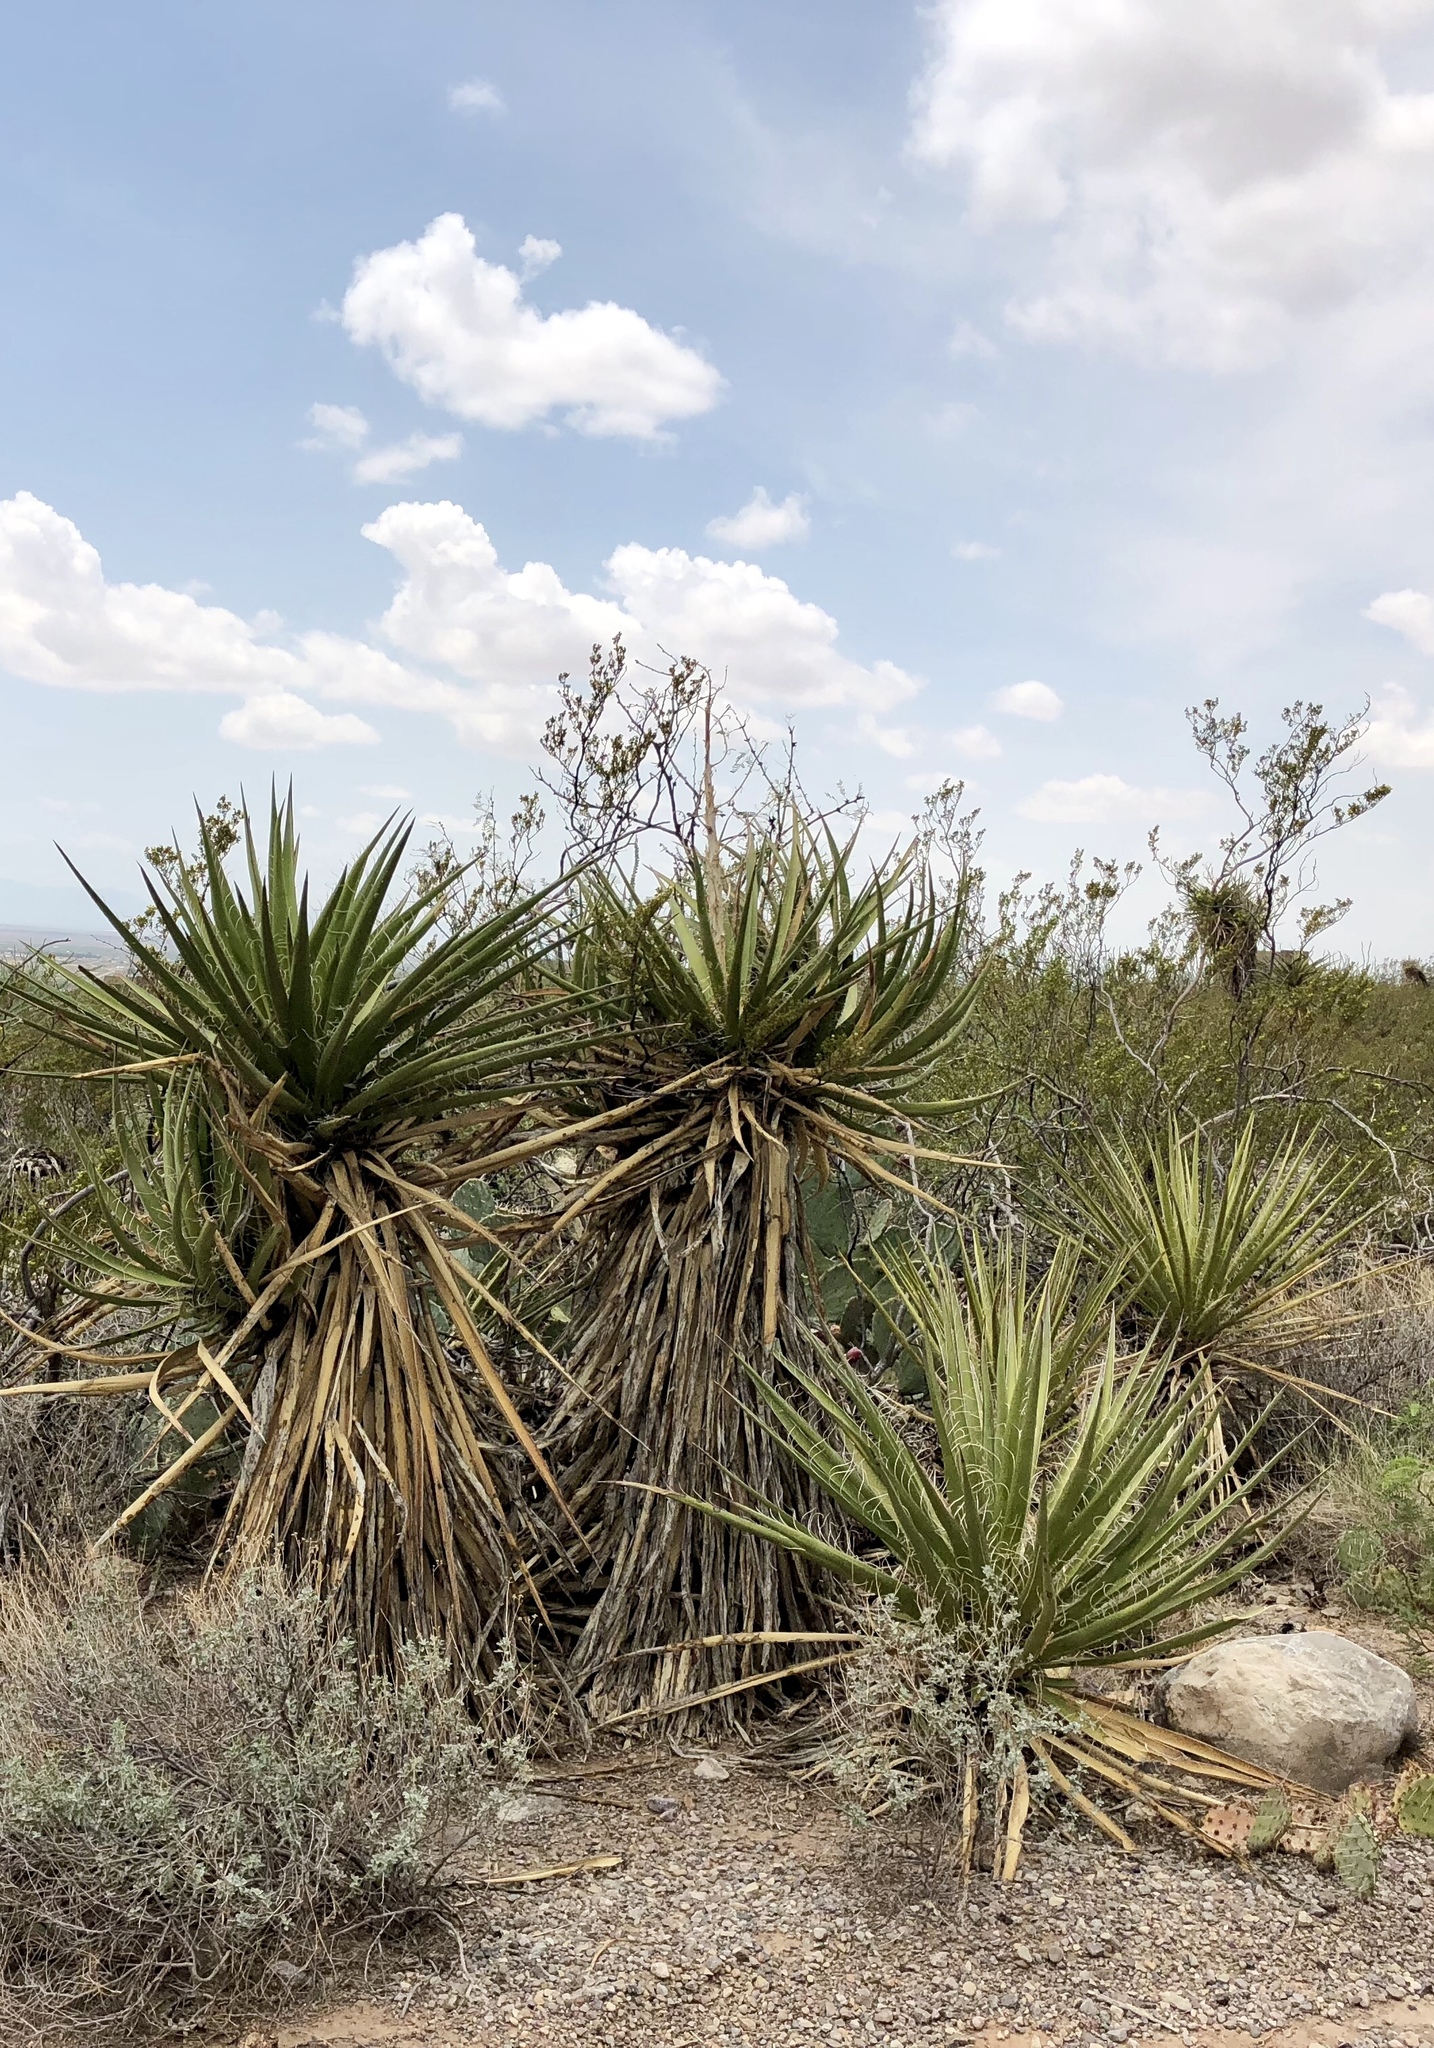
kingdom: Plantae
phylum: Tracheophyta
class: Liliopsida
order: Asparagales
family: Asparagaceae
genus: Yucca
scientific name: Yucca treculiana
